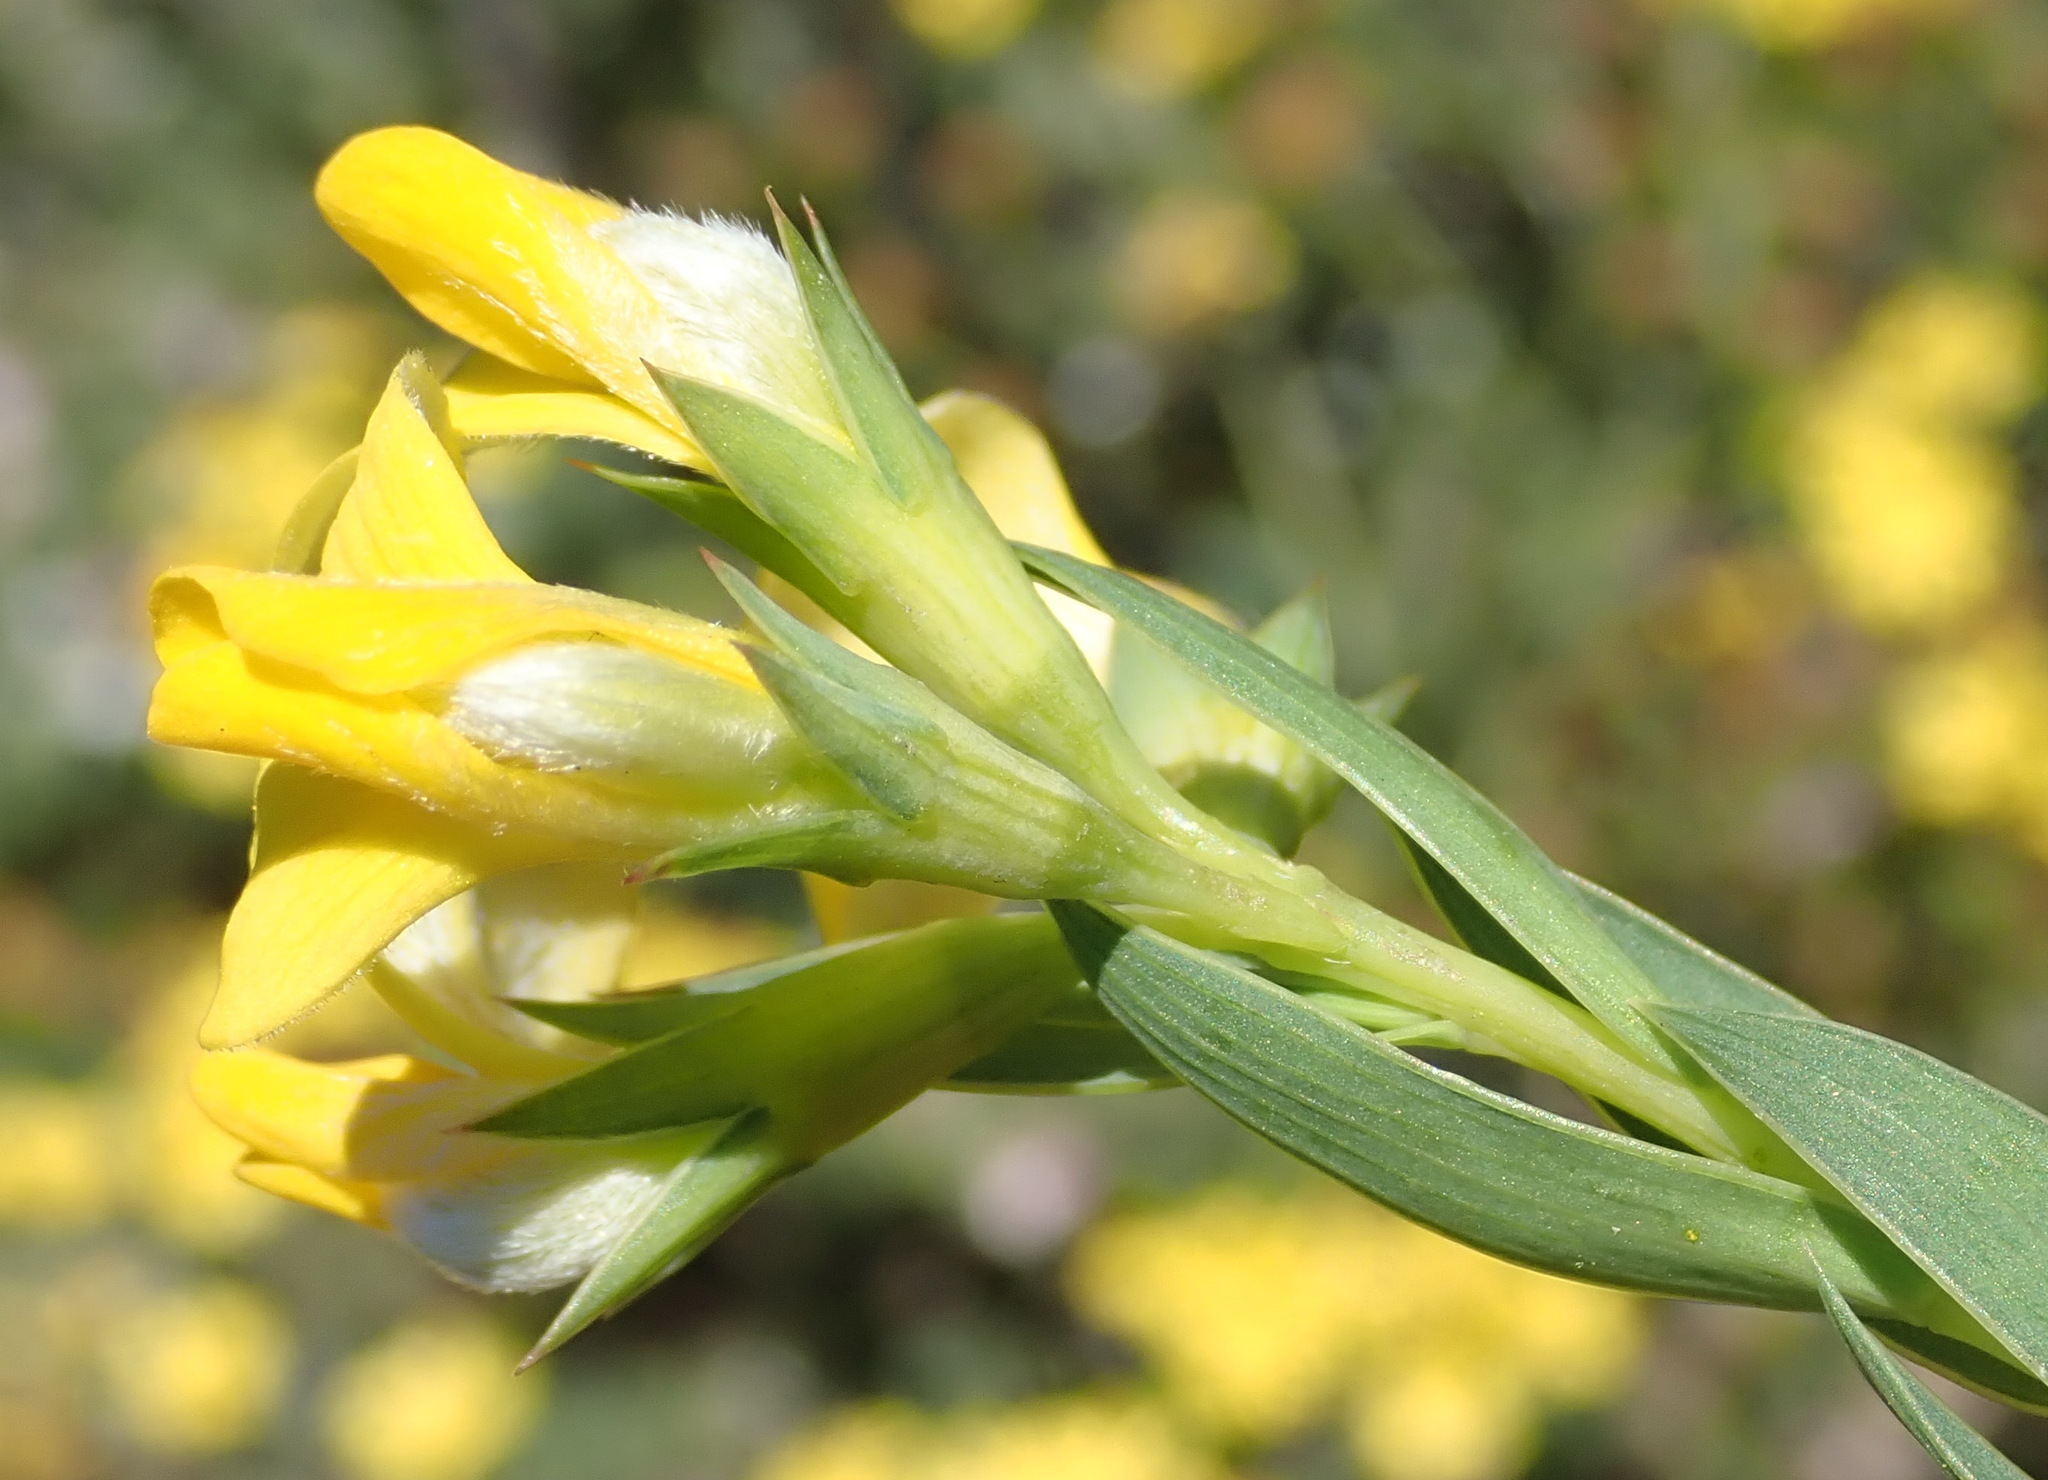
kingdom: Plantae
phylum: Tracheophyta
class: Magnoliopsida
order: Fabales
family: Fabaceae
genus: Aspalathus
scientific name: Aspalathus angustifolia
